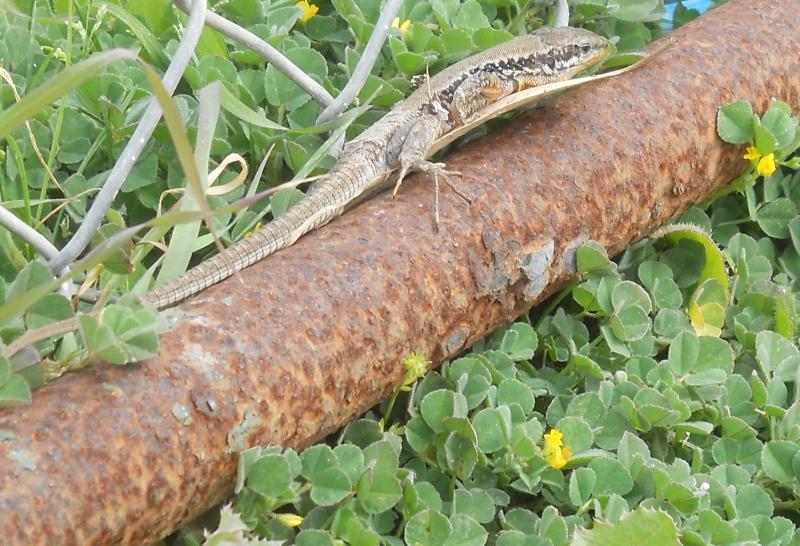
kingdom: Animalia
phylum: Chordata
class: Squamata
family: Lacertidae
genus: Phoenicolacerta
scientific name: Phoenicolacerta laevis
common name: Lebanon lizard
